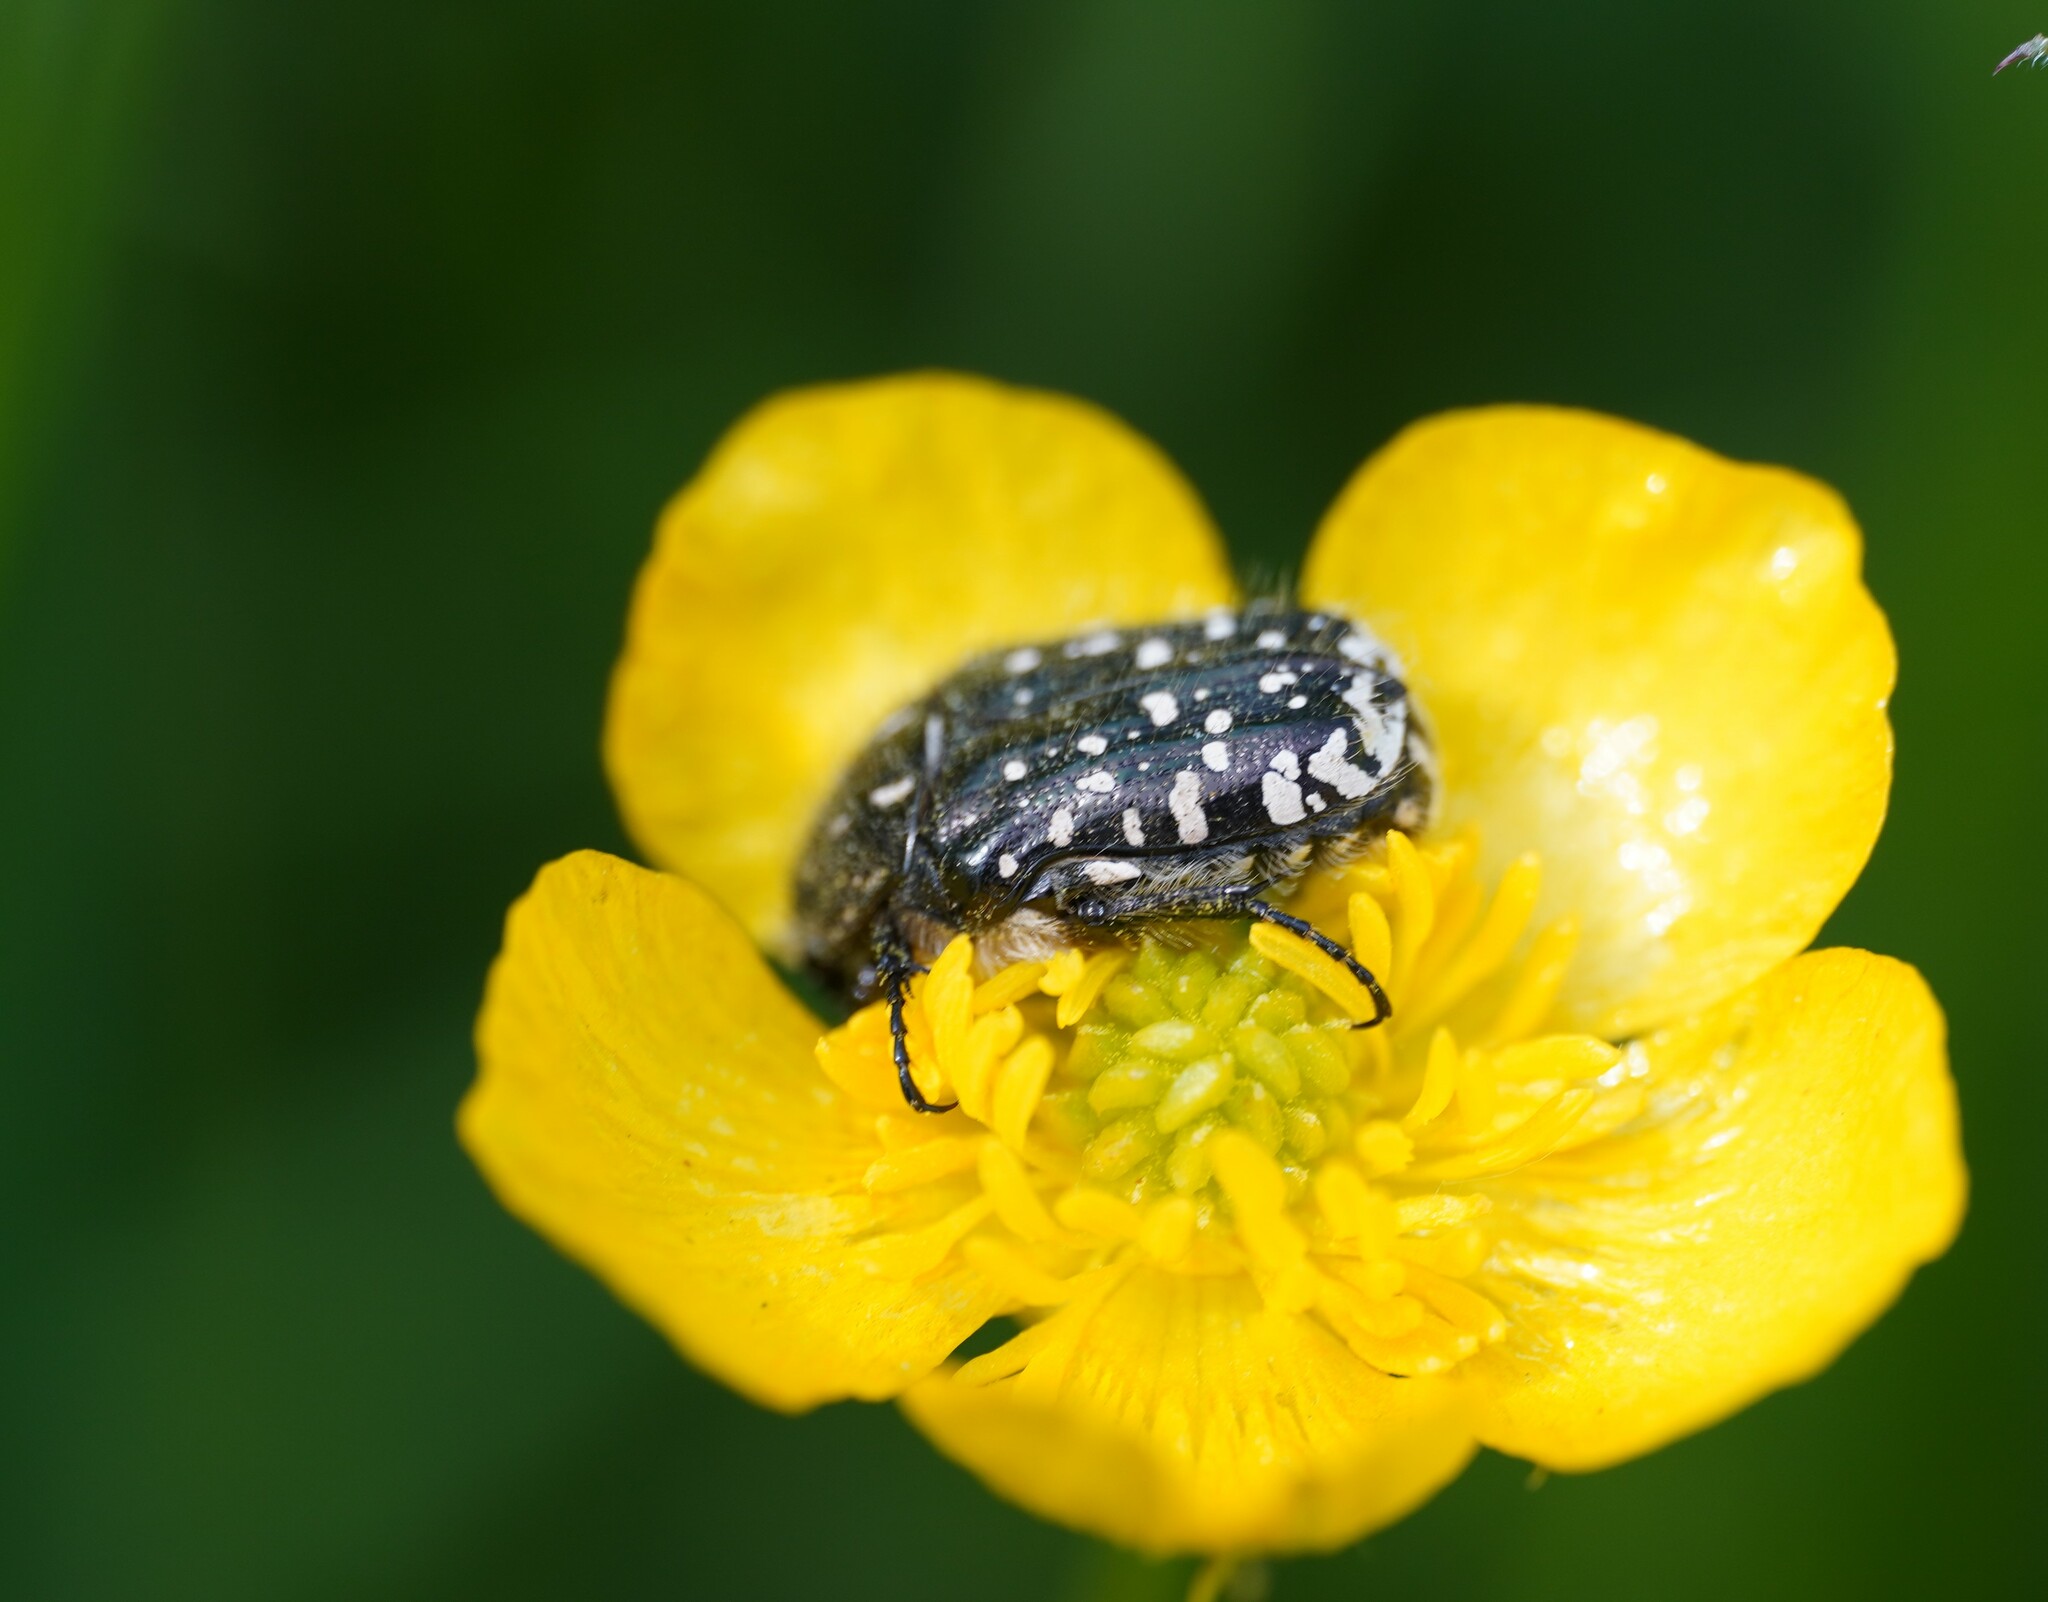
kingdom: Animalia
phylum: Arthropoda
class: Insecta
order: Coleoptera
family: Scarabaeidae
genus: Oxythyrea
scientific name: Oxythyrea funesta
